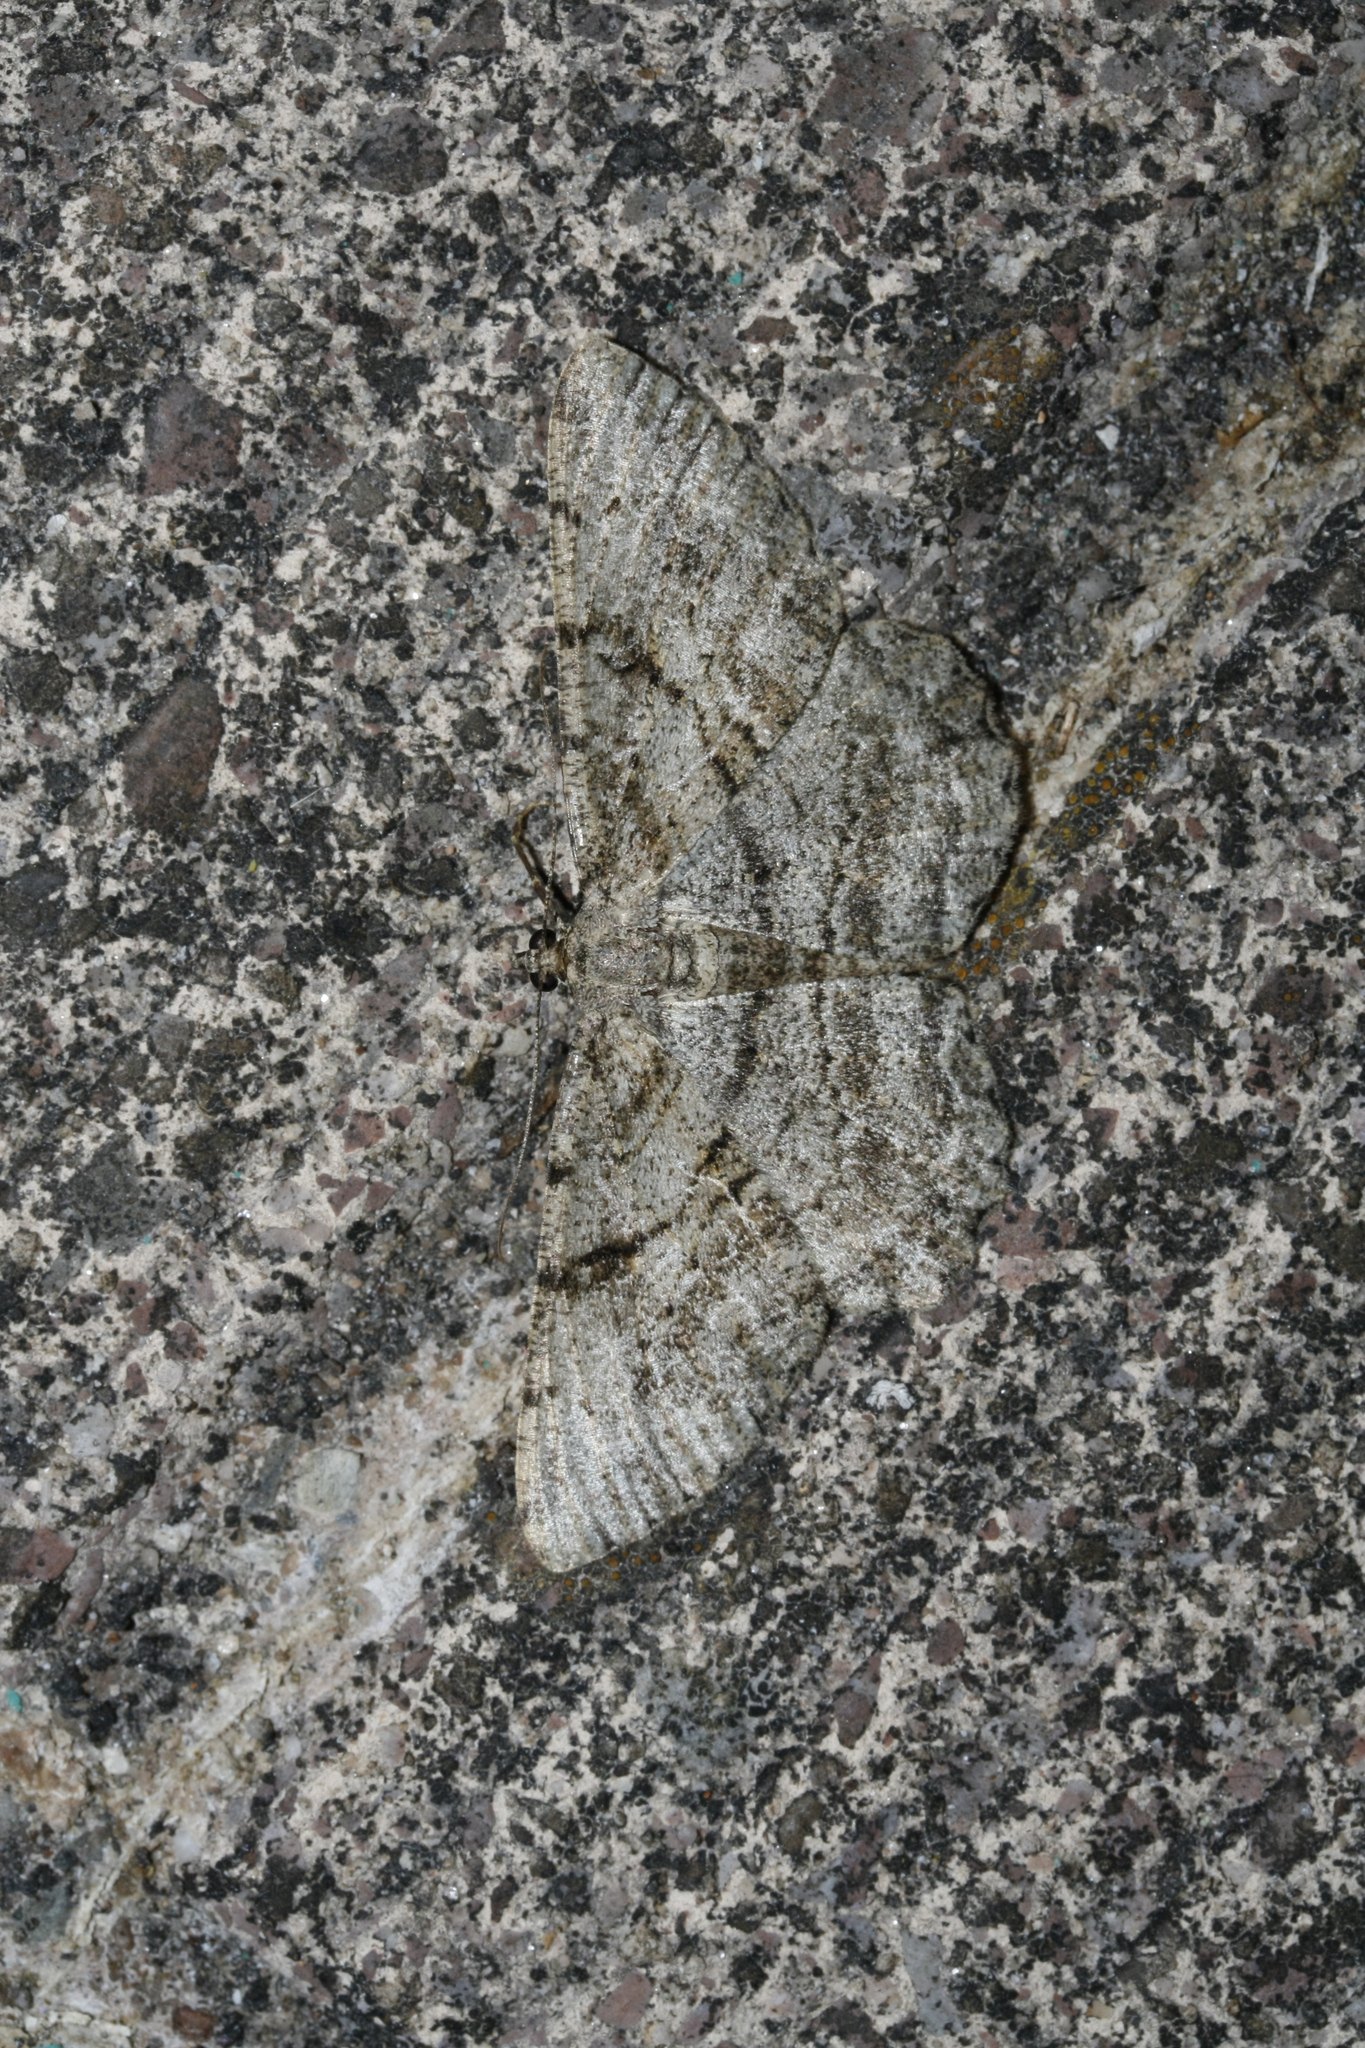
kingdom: Animalia
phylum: Arthropoda
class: Insecta
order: Lepidoptera
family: Geometridae
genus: Peribatodes
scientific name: Peribatodes rhomboidaria
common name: Willow beauty
